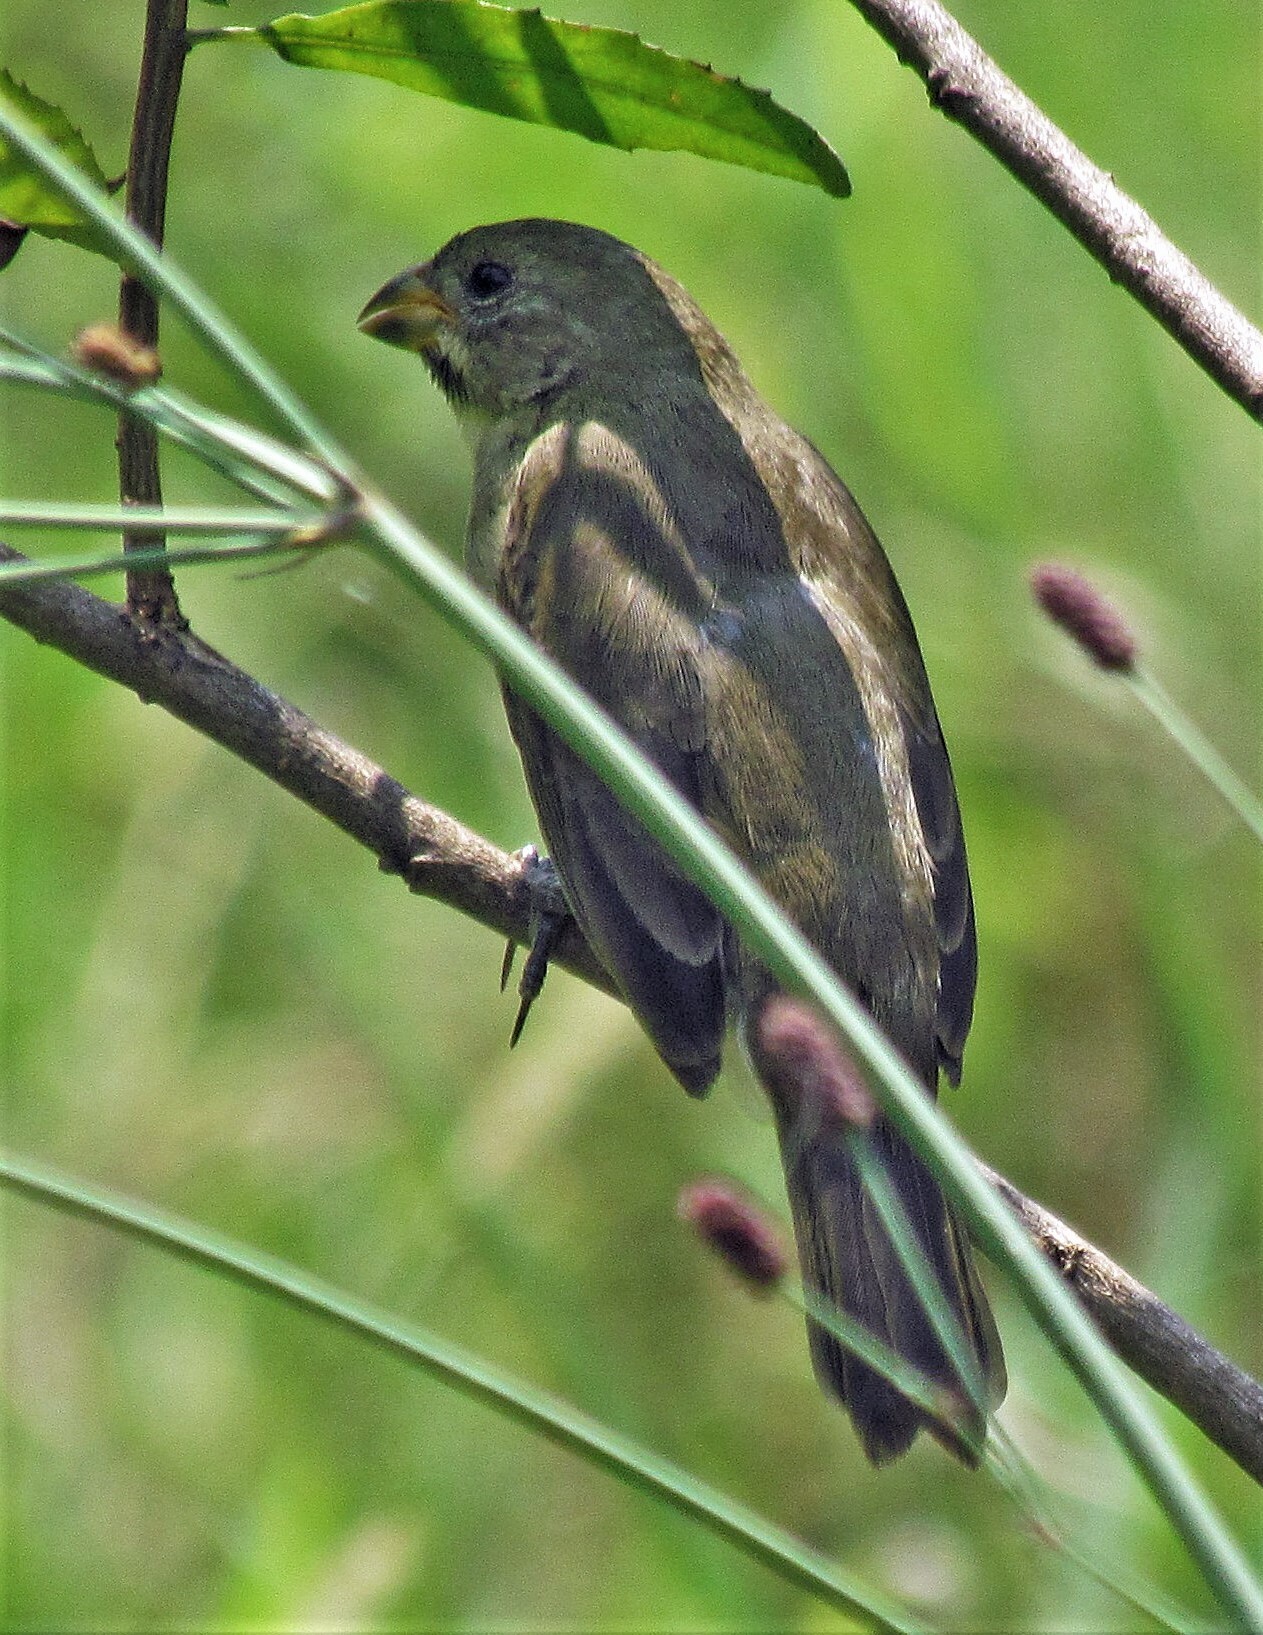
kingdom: Animalia
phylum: Chordata
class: Aves
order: Passeriformes
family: Thraupidae
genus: Sporophila
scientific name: Sporophila caerulescens
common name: Double-collared seedeater
